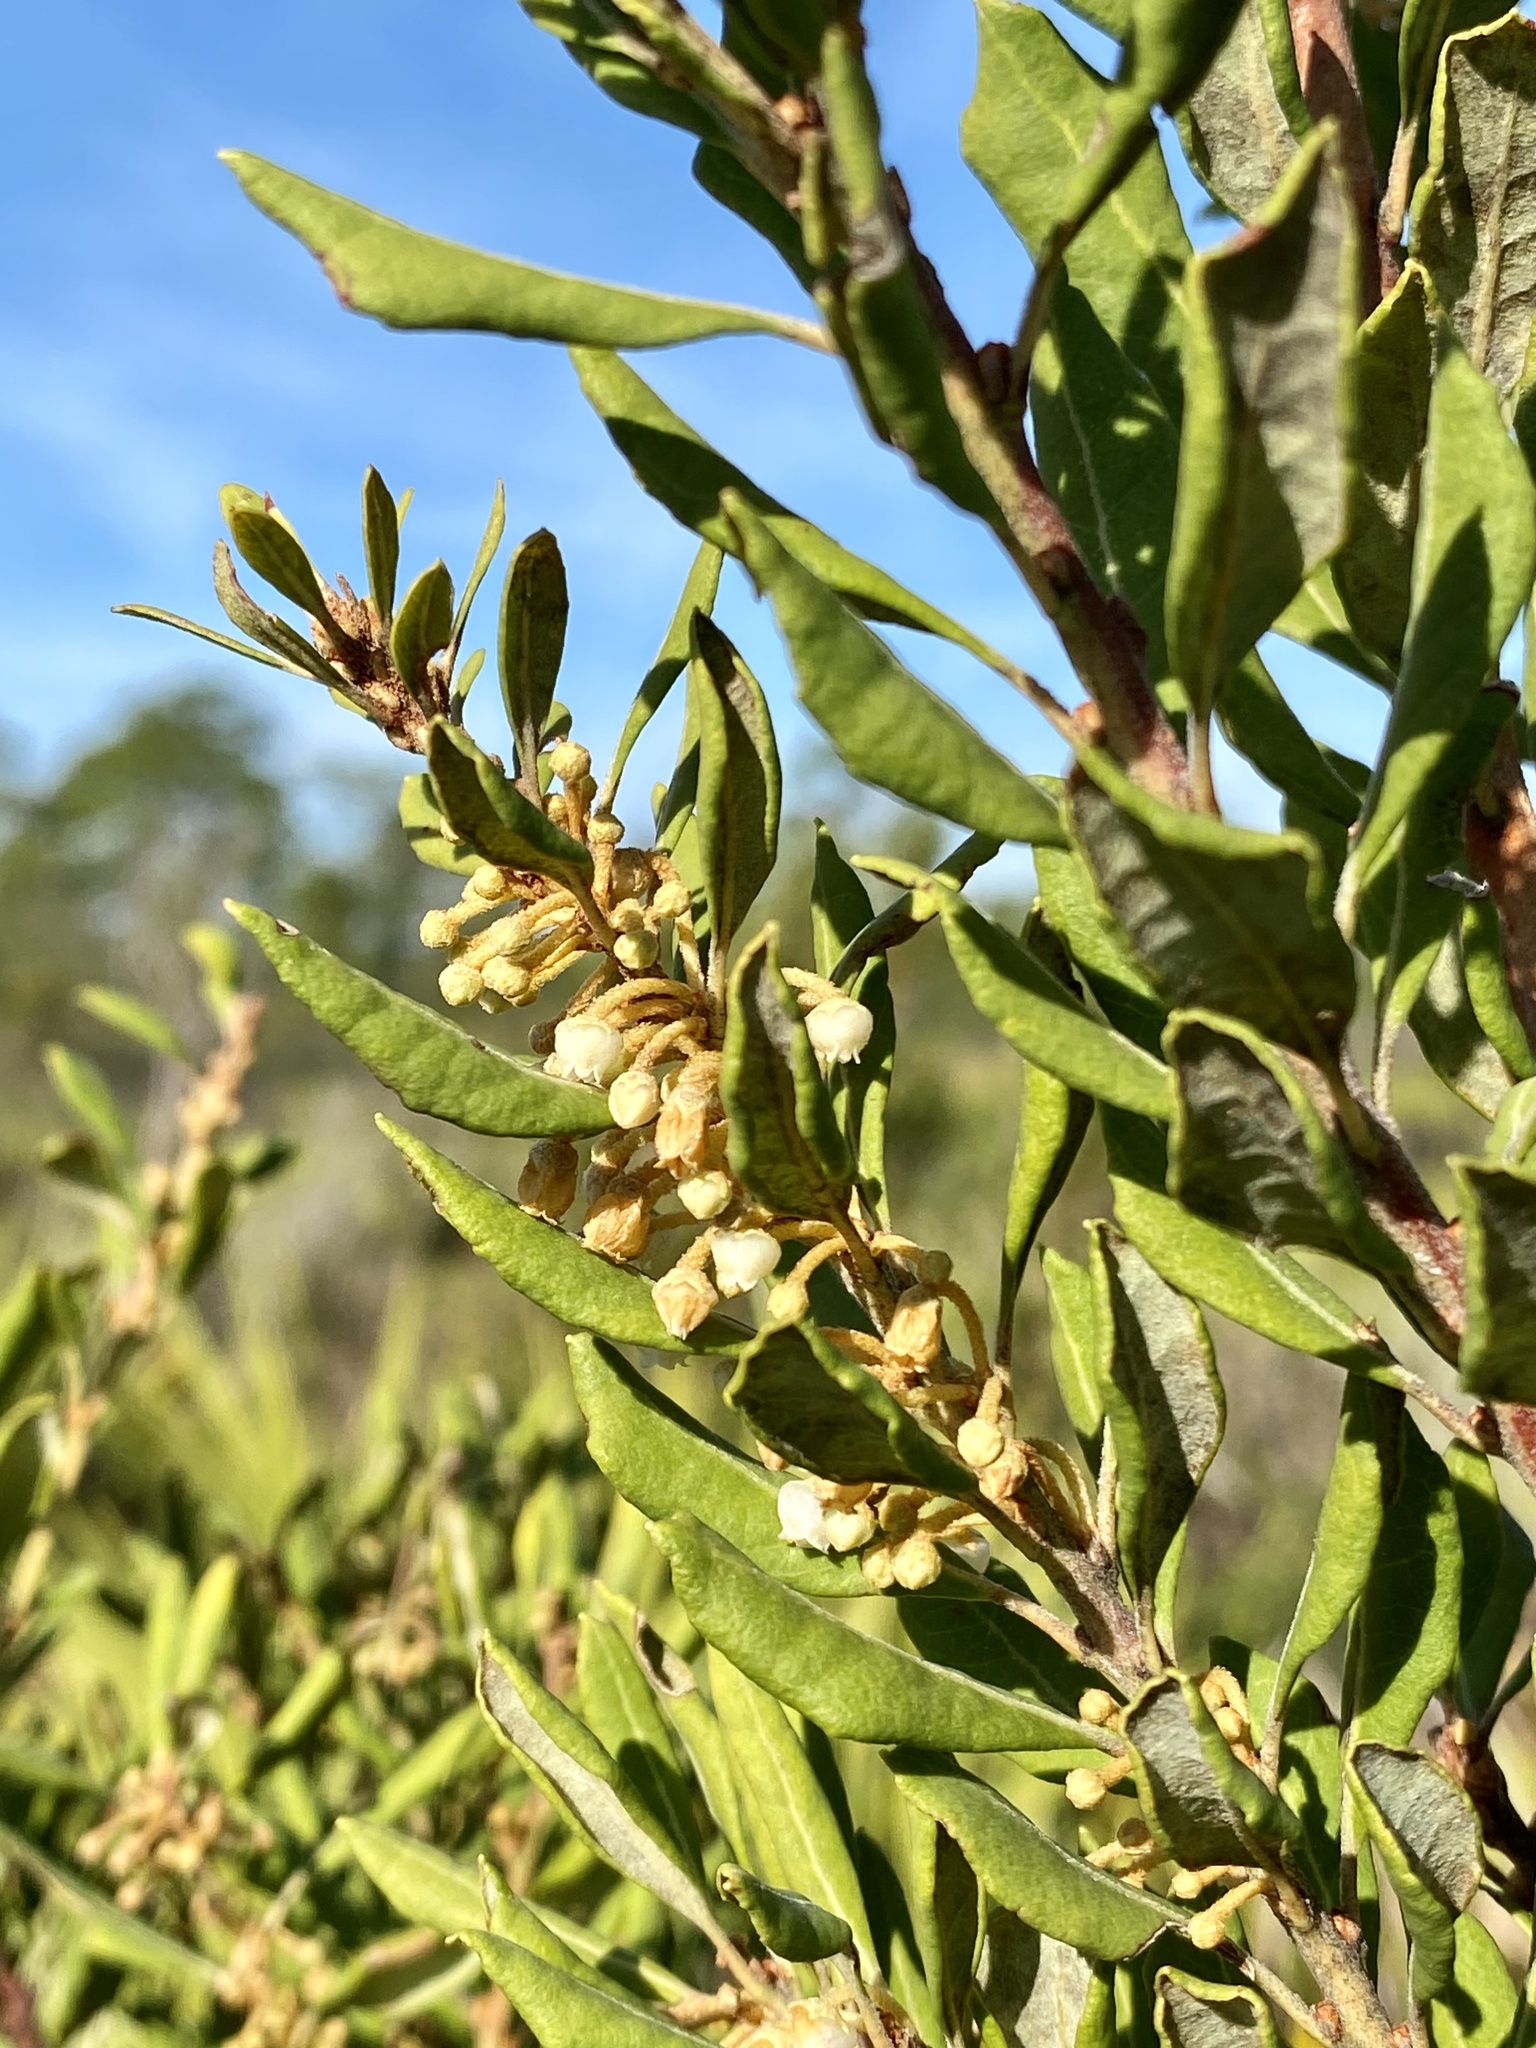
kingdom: Plantae
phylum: Tracheophyta
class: Magnoliopsida
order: Ericales
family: Ericaceae
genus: Lyonia
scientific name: Lyonia ferruginea
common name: Rusty lyonia
